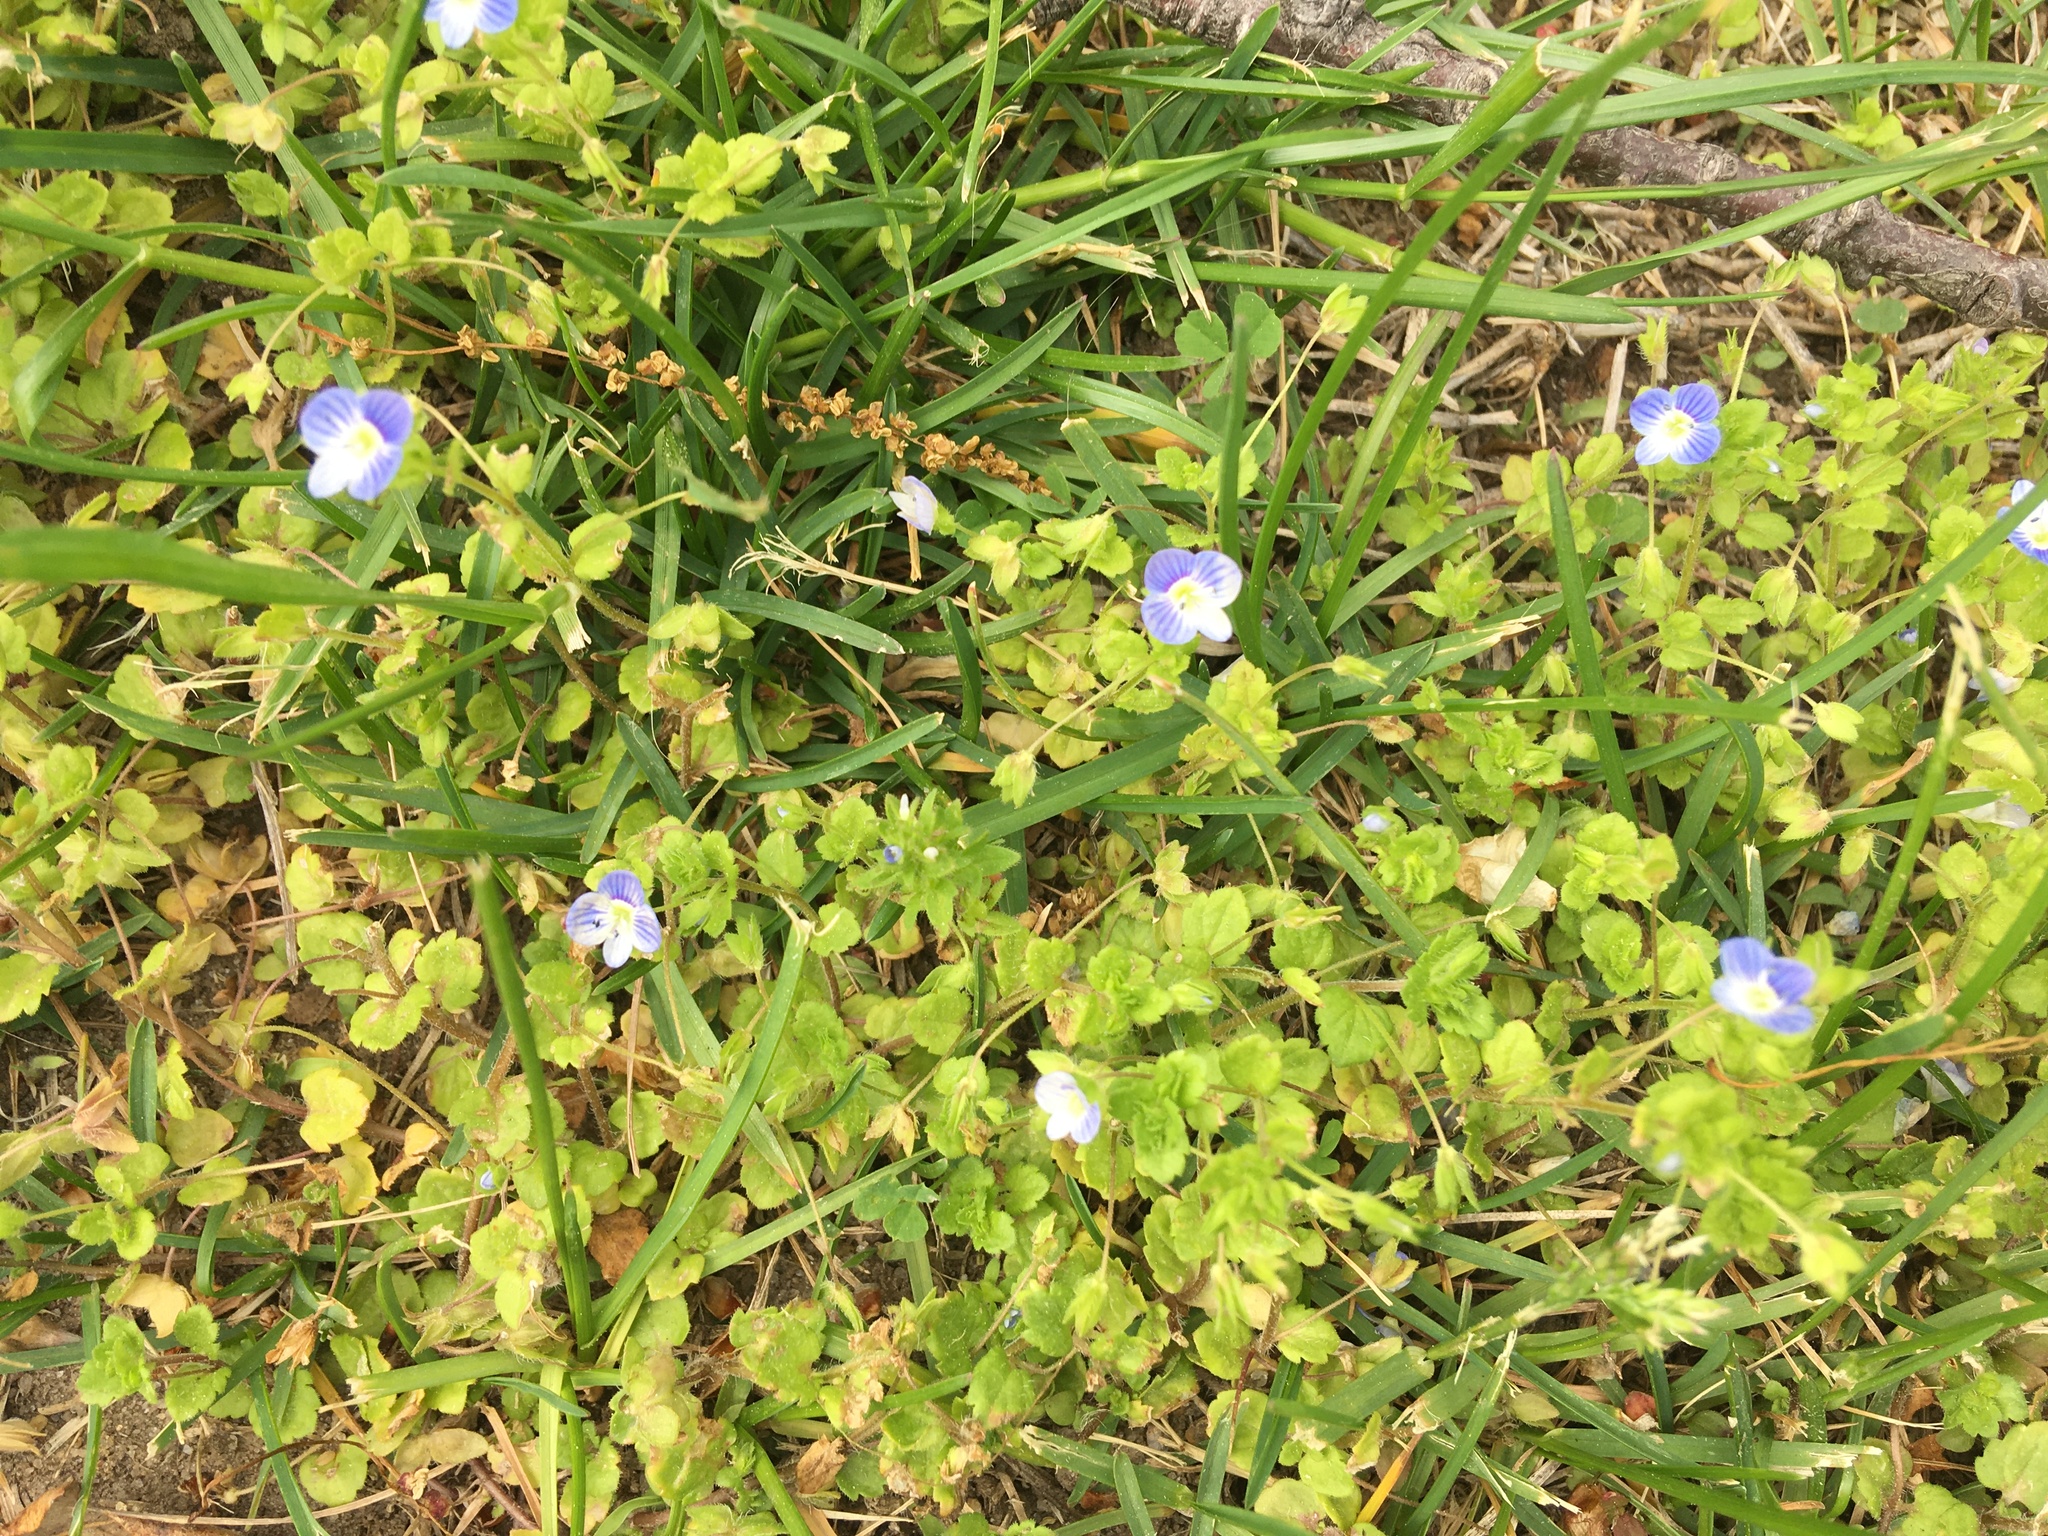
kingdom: Plantae
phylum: Tracheophyta
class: Magnoliopsida
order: Lamiales
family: Plantaginaceae
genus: Veronica
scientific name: Veronica persica
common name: Common field-speedwell
